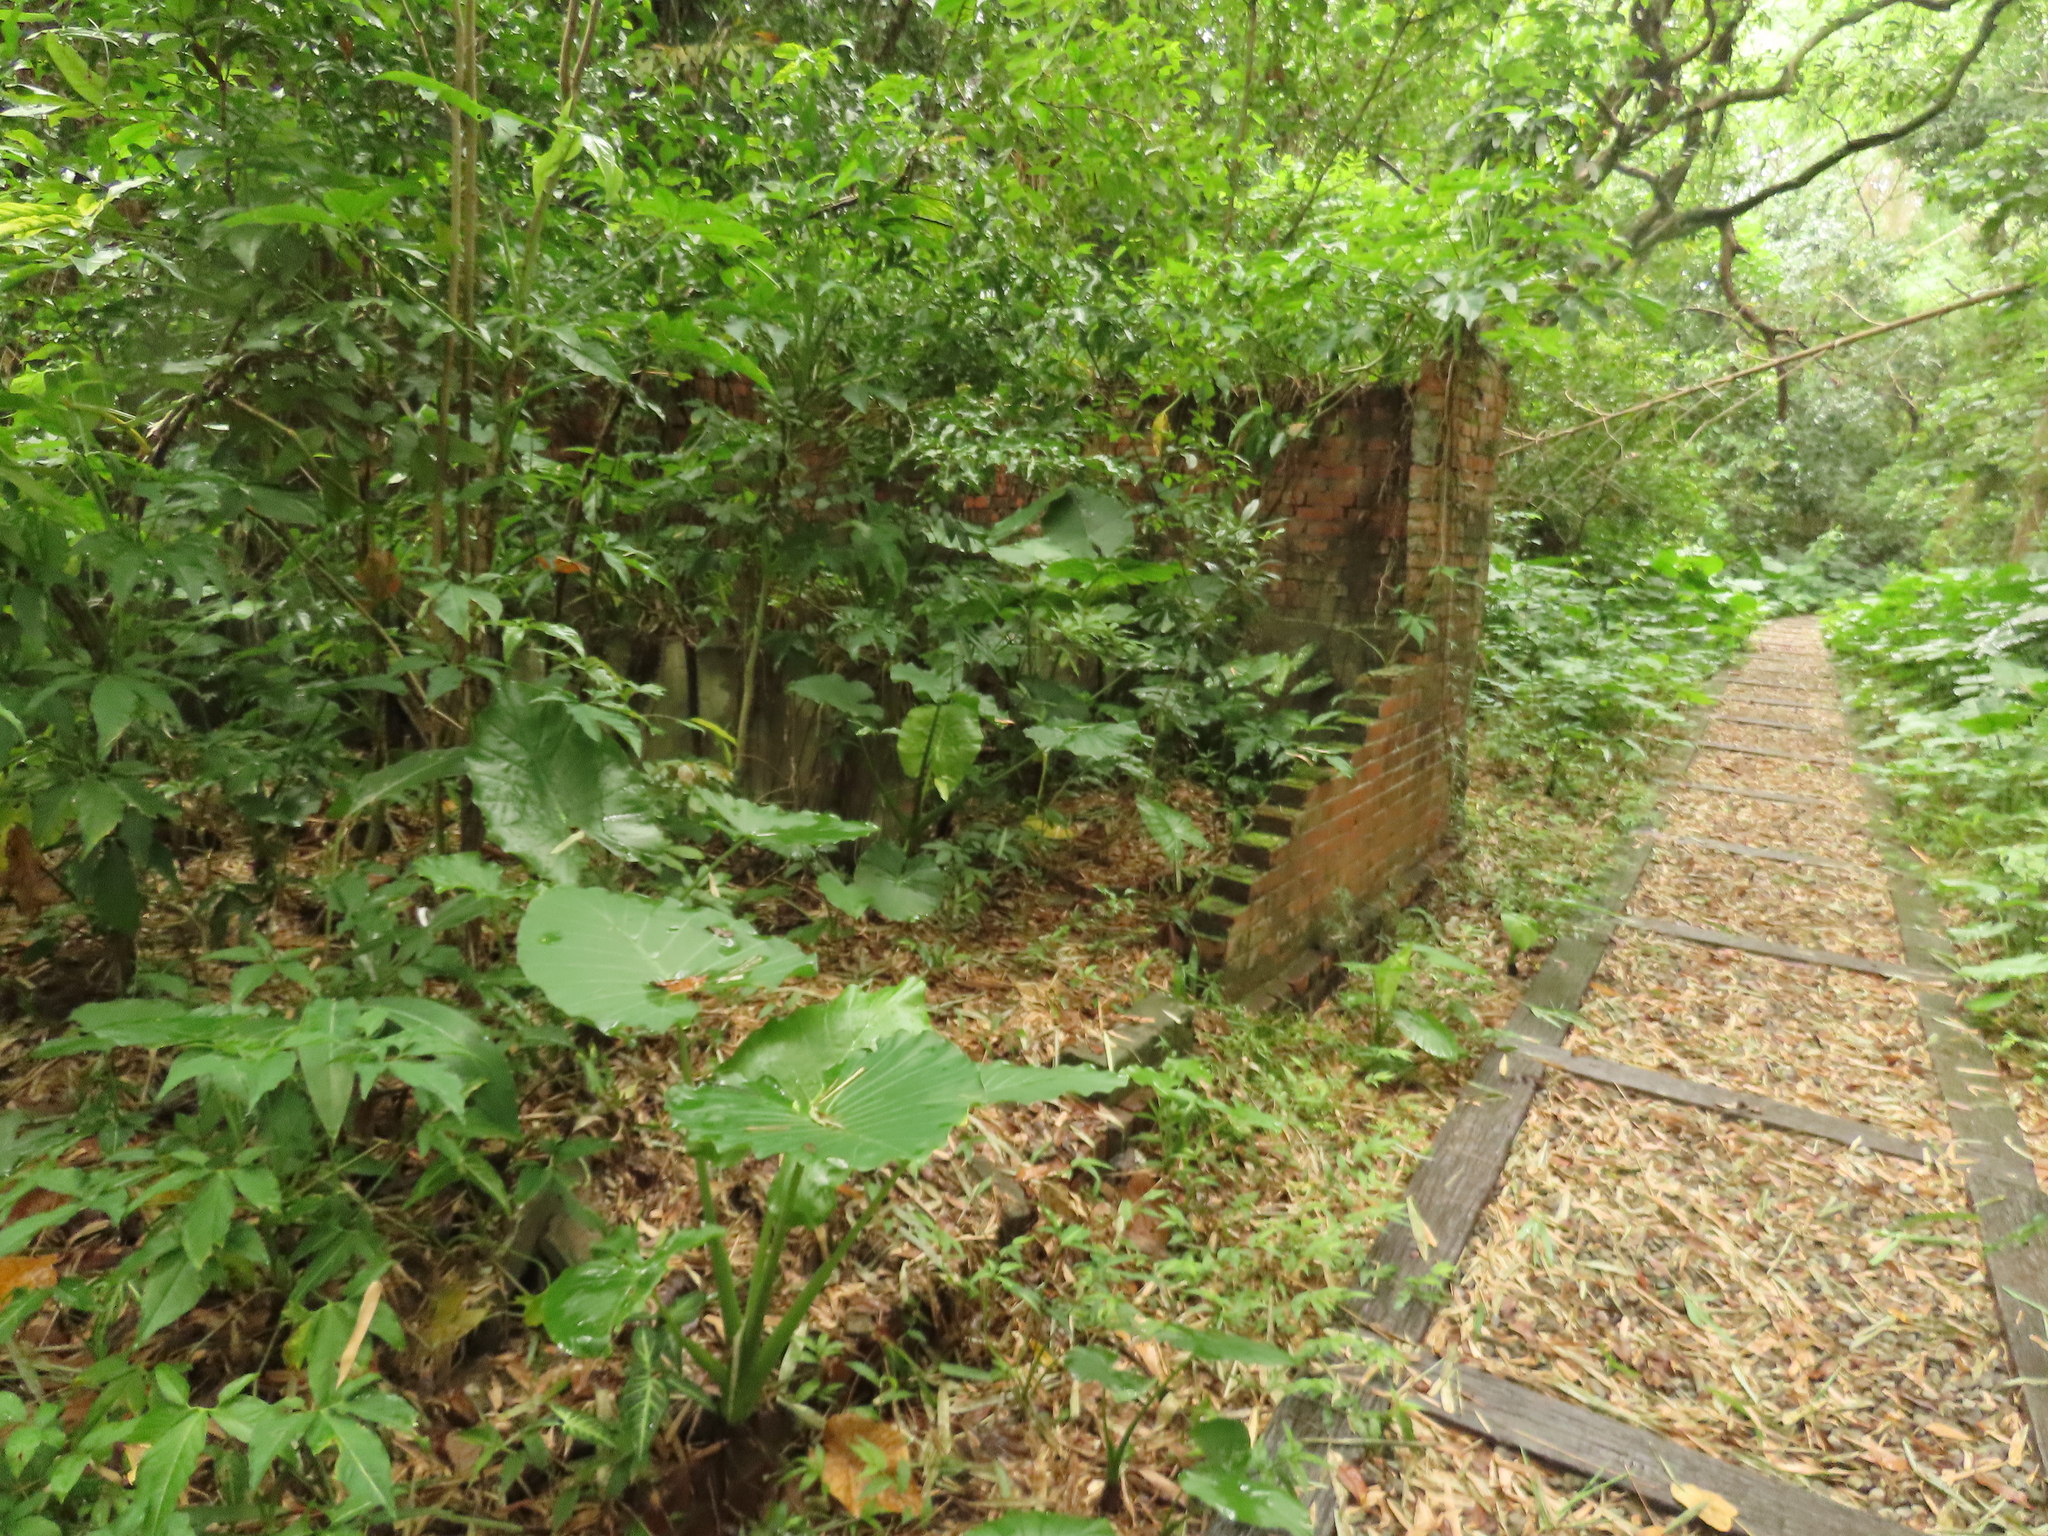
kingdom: Plantae
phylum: Tracheophyta
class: Liliopsida
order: Alismatales
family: Araceae
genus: Alocasia
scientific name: Alocasia odora
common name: Asian taro
